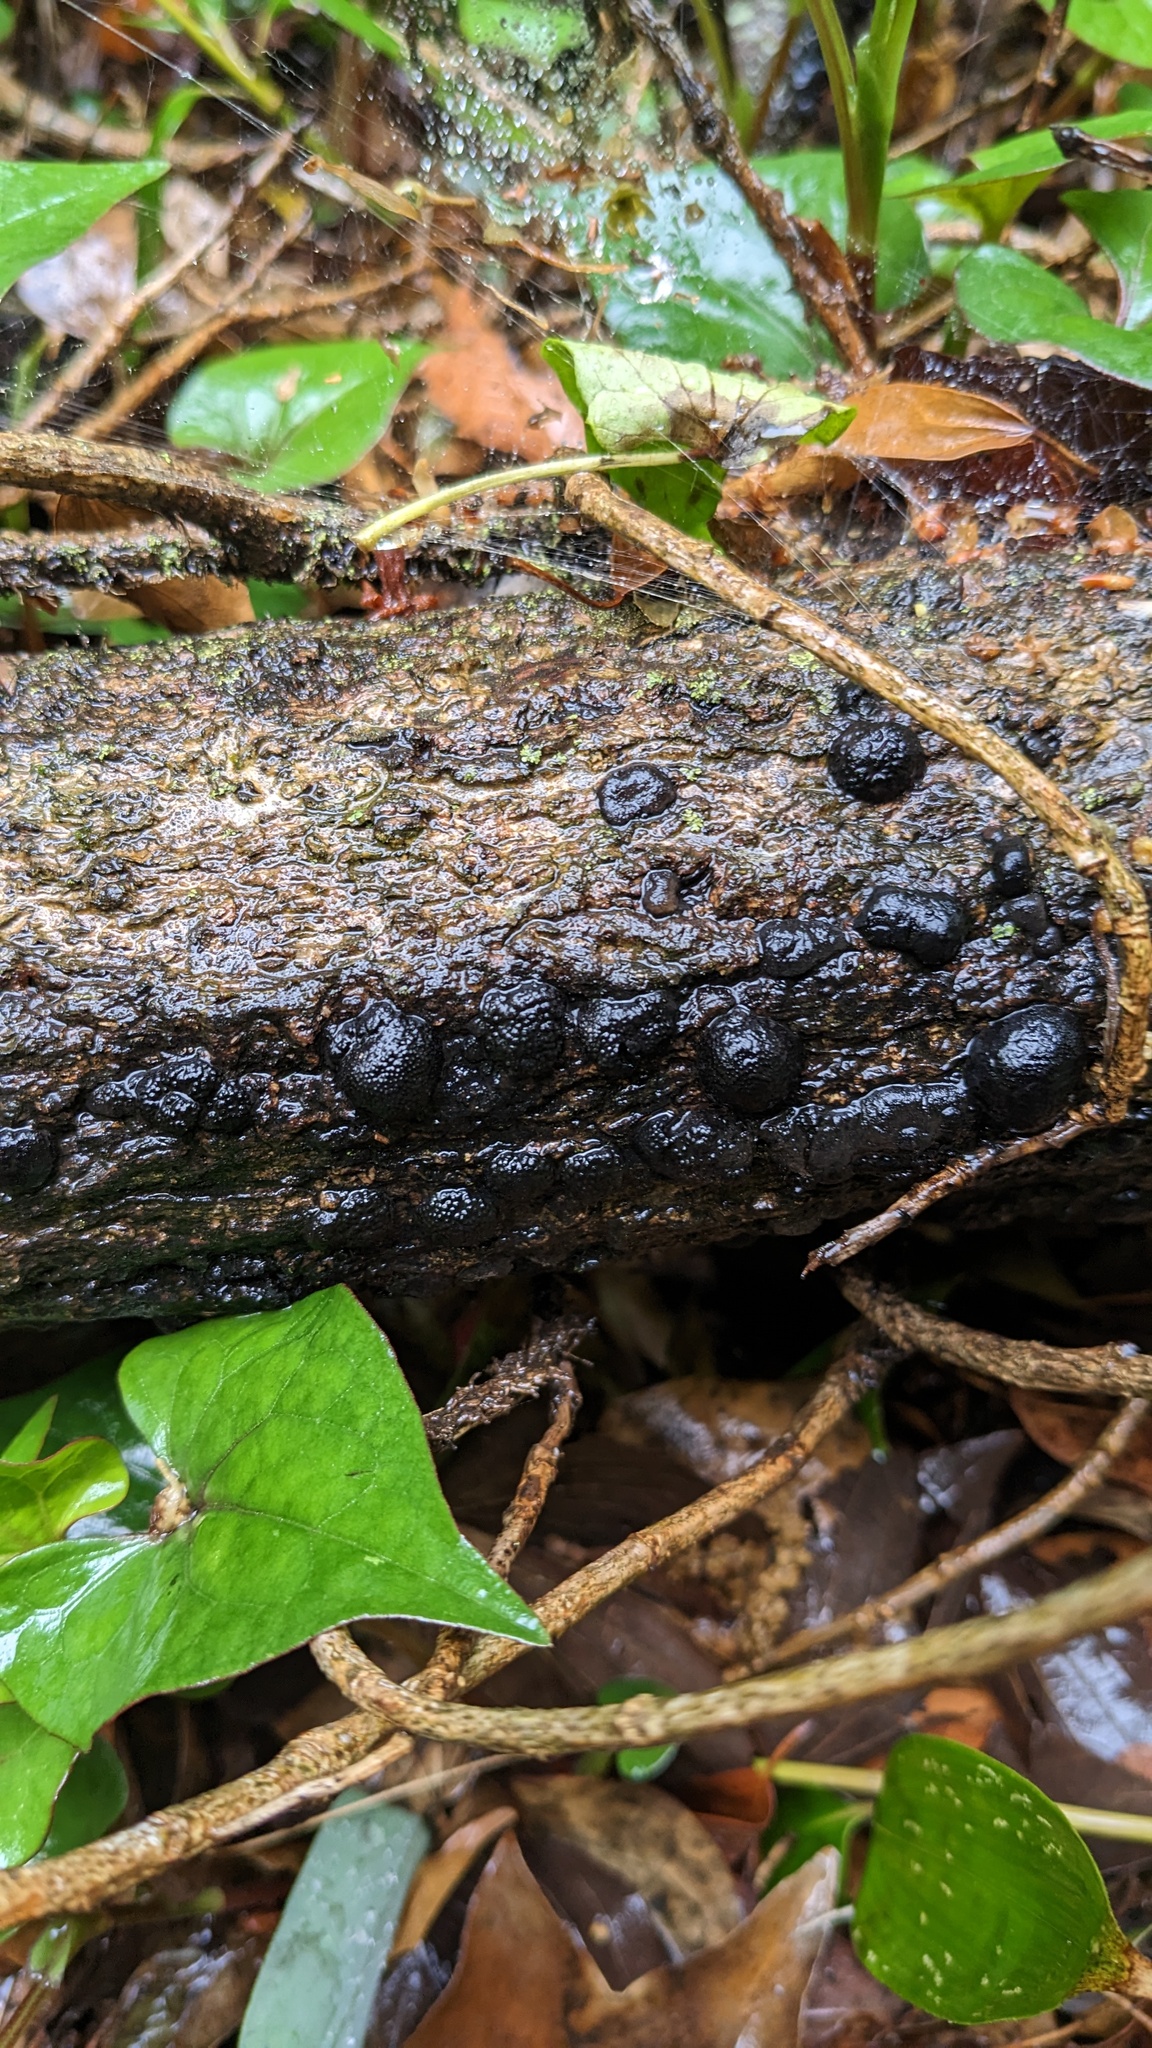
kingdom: Fungi
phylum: Ascomycota
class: Sordariomycetes
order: Xylariales
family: Hypoxylaceae
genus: Annulohypoxylon
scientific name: Annulohypoxylon truncatum
